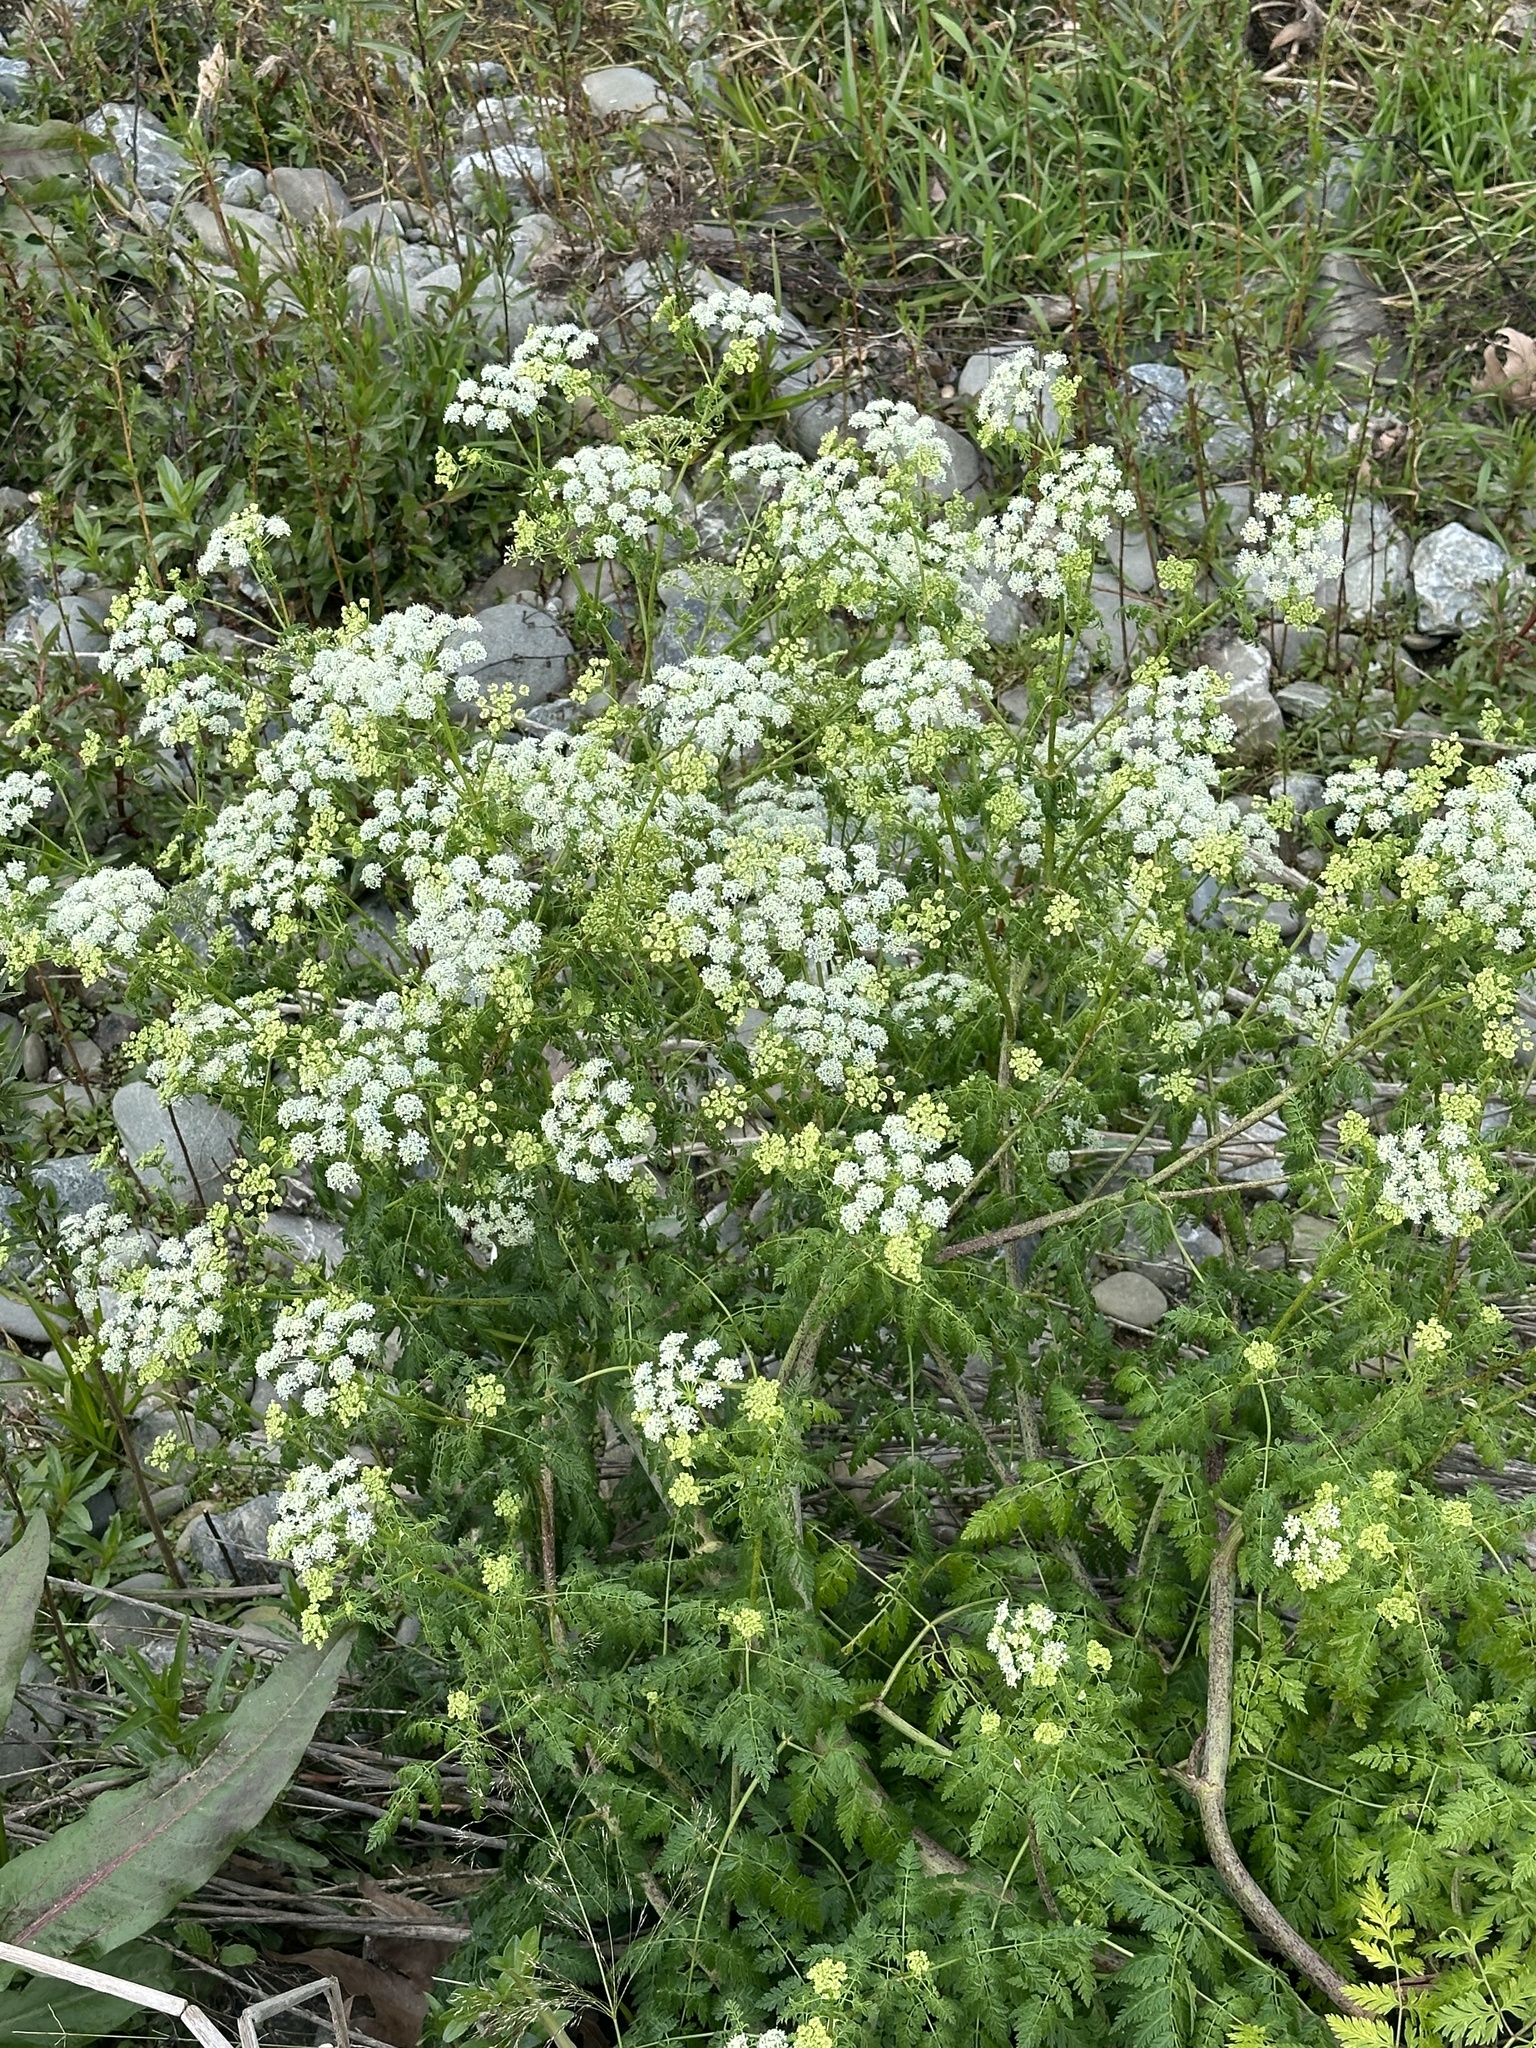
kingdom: Plantae
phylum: Tracheophyta
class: Magnoliopsida
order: Apiales
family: Apiaceae
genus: Conium
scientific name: Conium maculatum
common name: Hemlock
